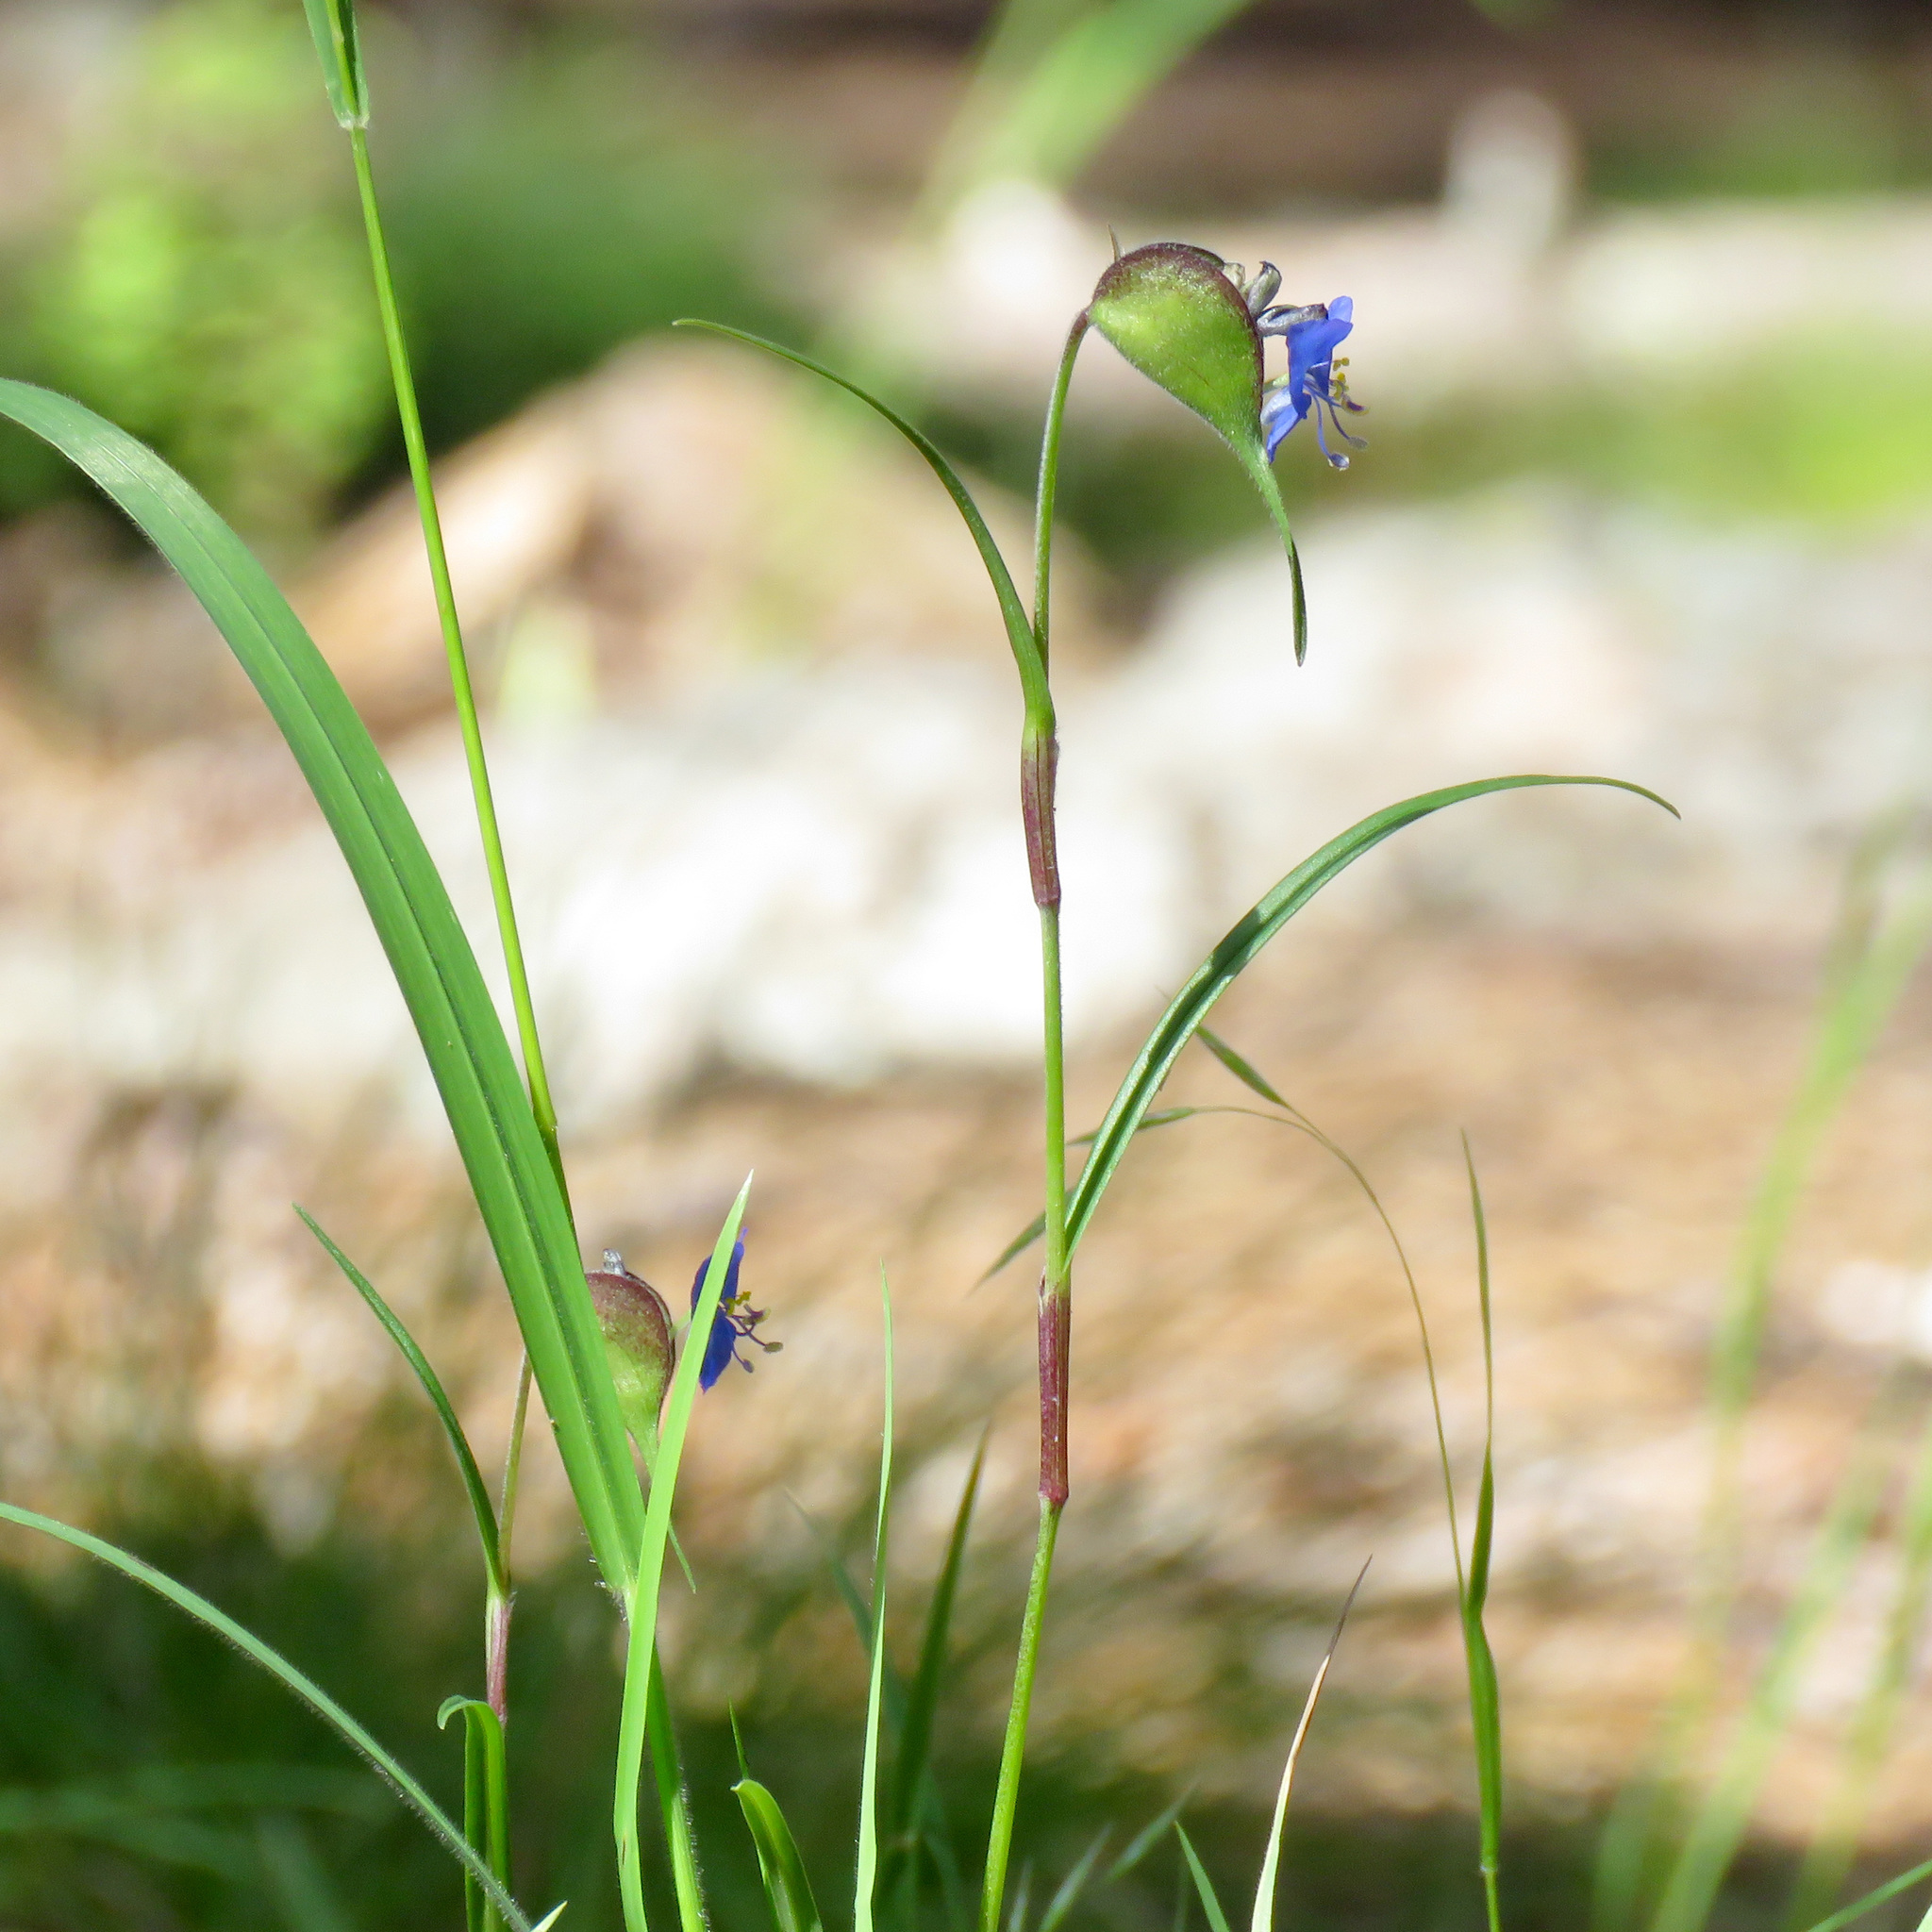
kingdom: Plantae
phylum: Tracheophyta
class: Liliopsida
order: Commelinales
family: Commelinaceae
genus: Commelina
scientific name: Commelina dianthifolia
